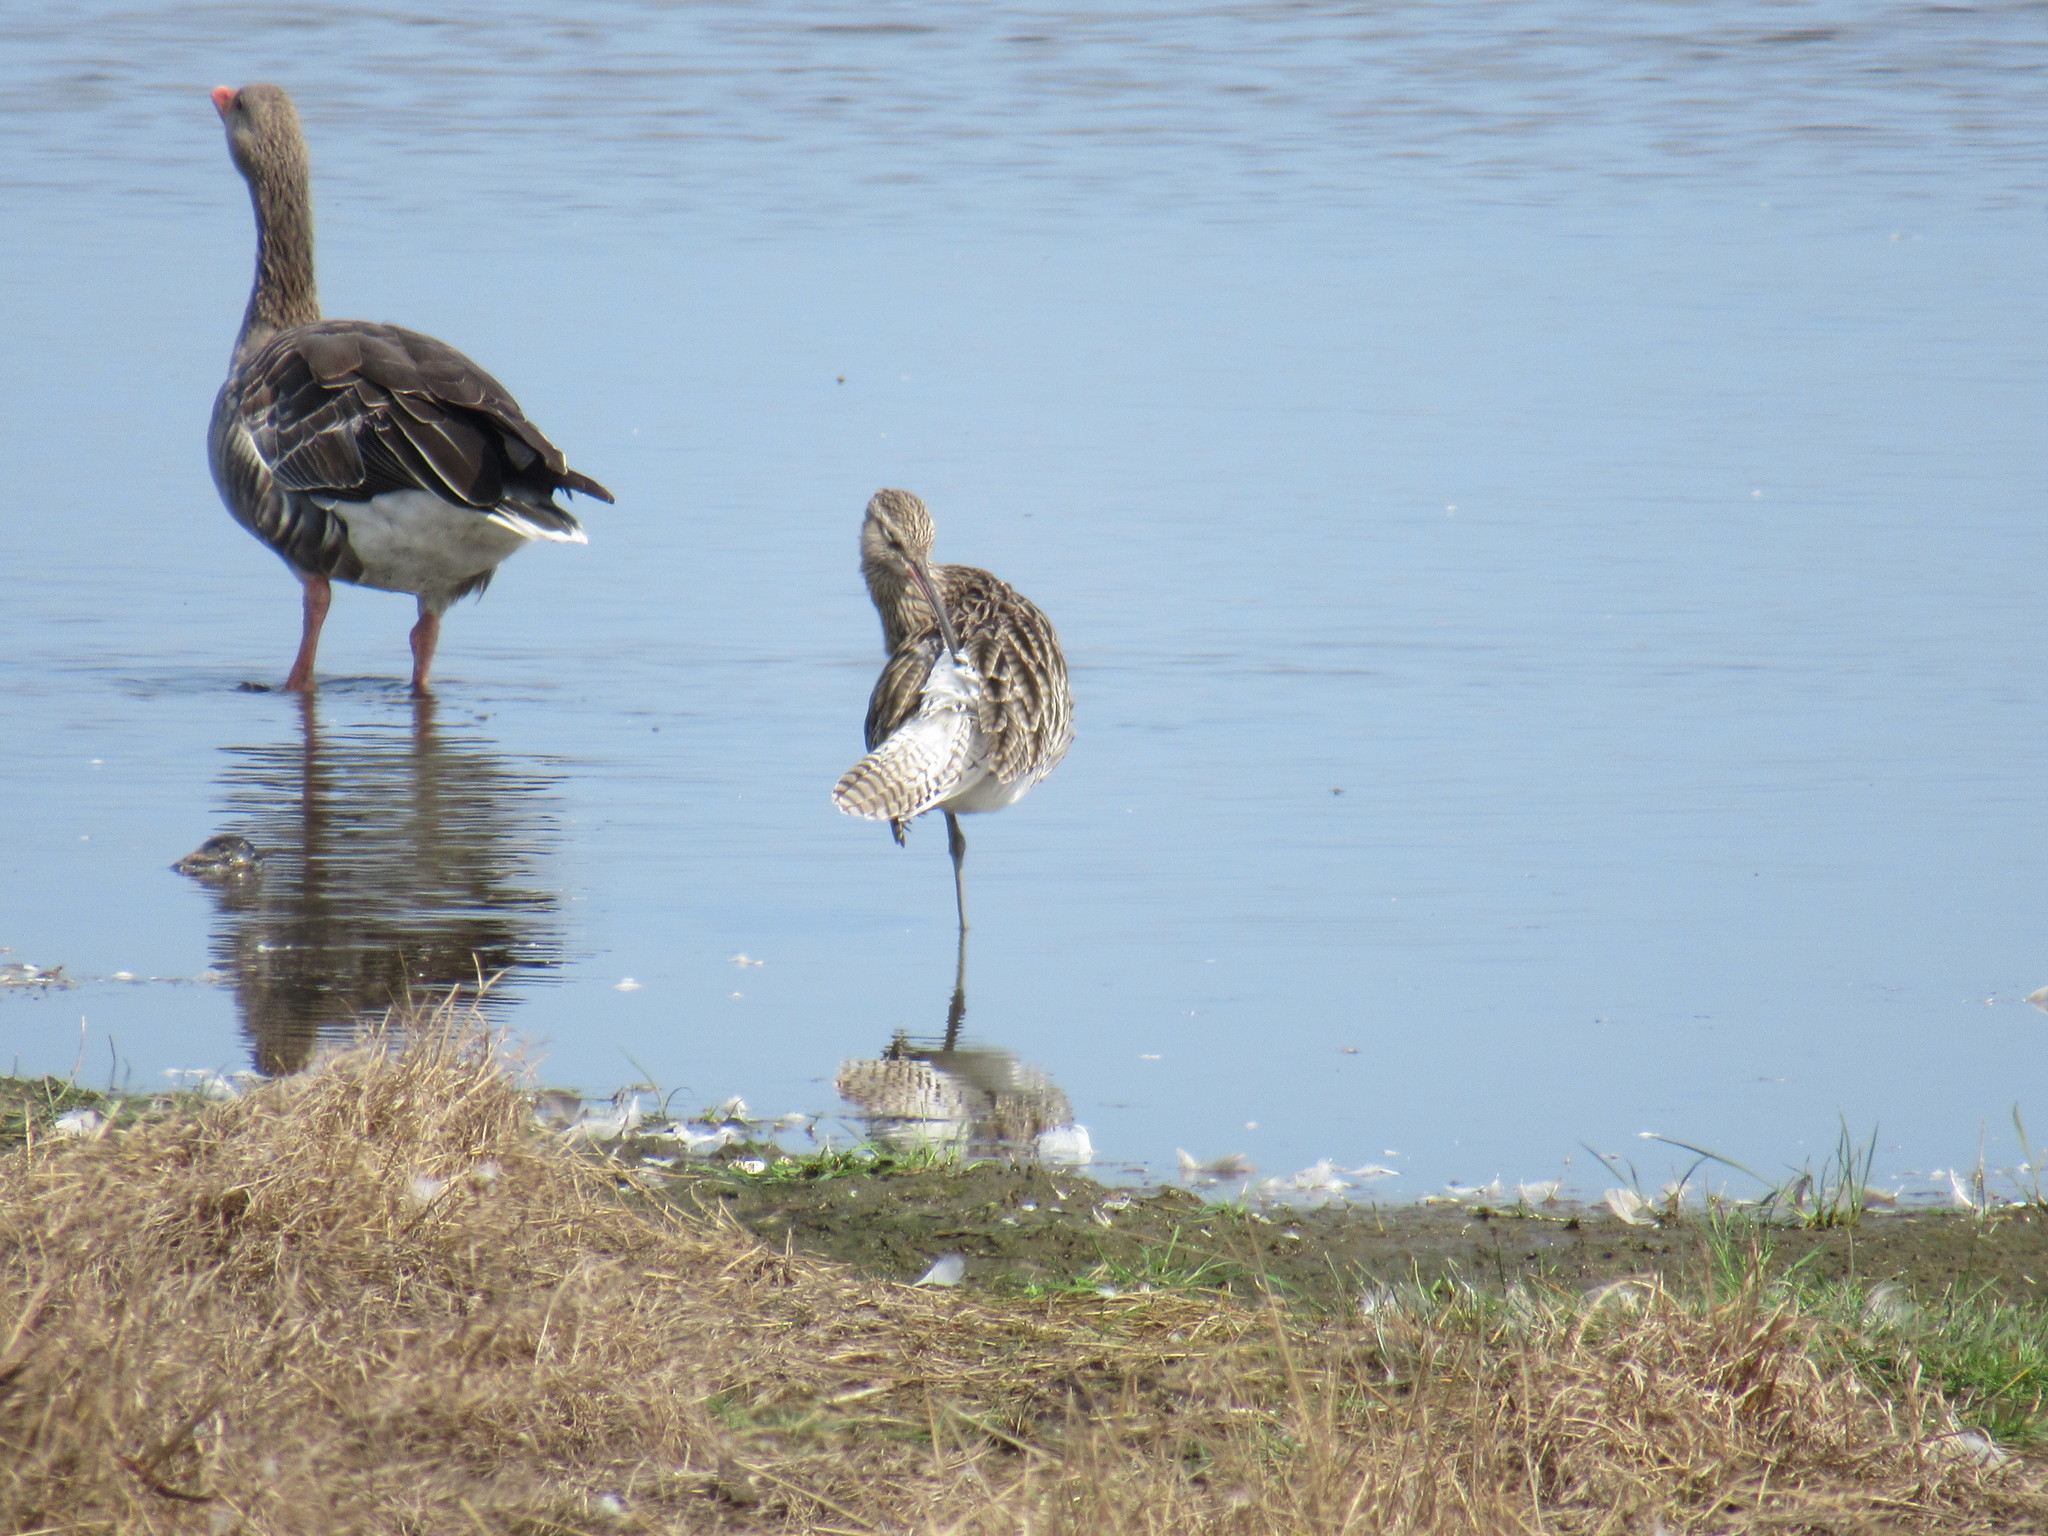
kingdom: Animalia
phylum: Chordata
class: Aves
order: Anseriformes
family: Anatidae
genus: Anser
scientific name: Anser anser
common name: Greylag goose
